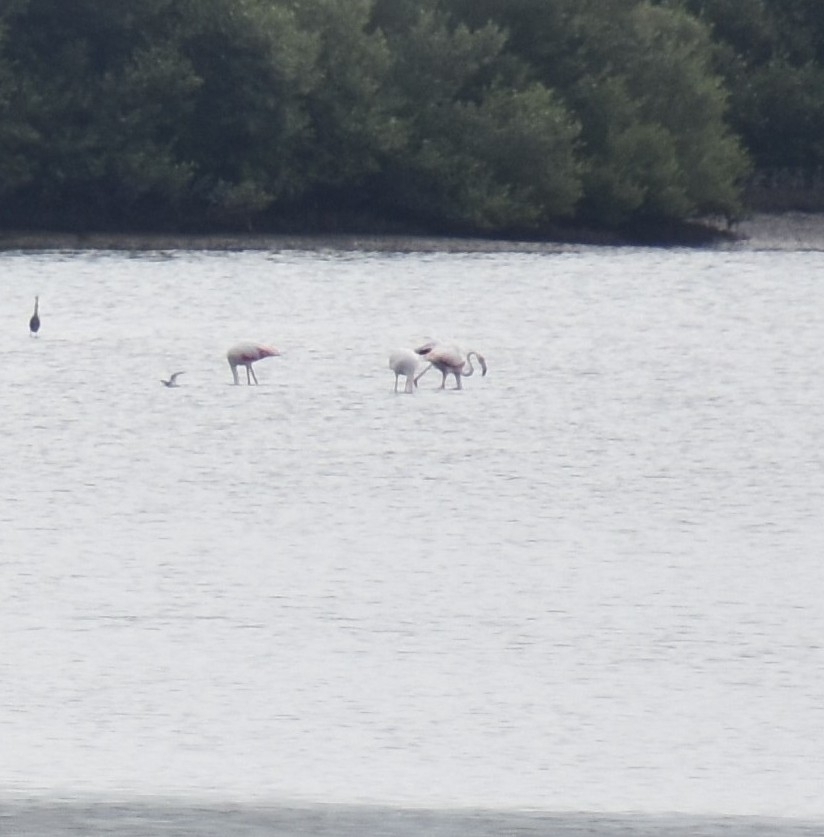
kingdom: Animalia
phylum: Chordata
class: Aves
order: Phoenicopteriformes
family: Phoenicopteridae
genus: Phoenicopterus
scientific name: Phoenicopterus roseus
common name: Greater flamingo
